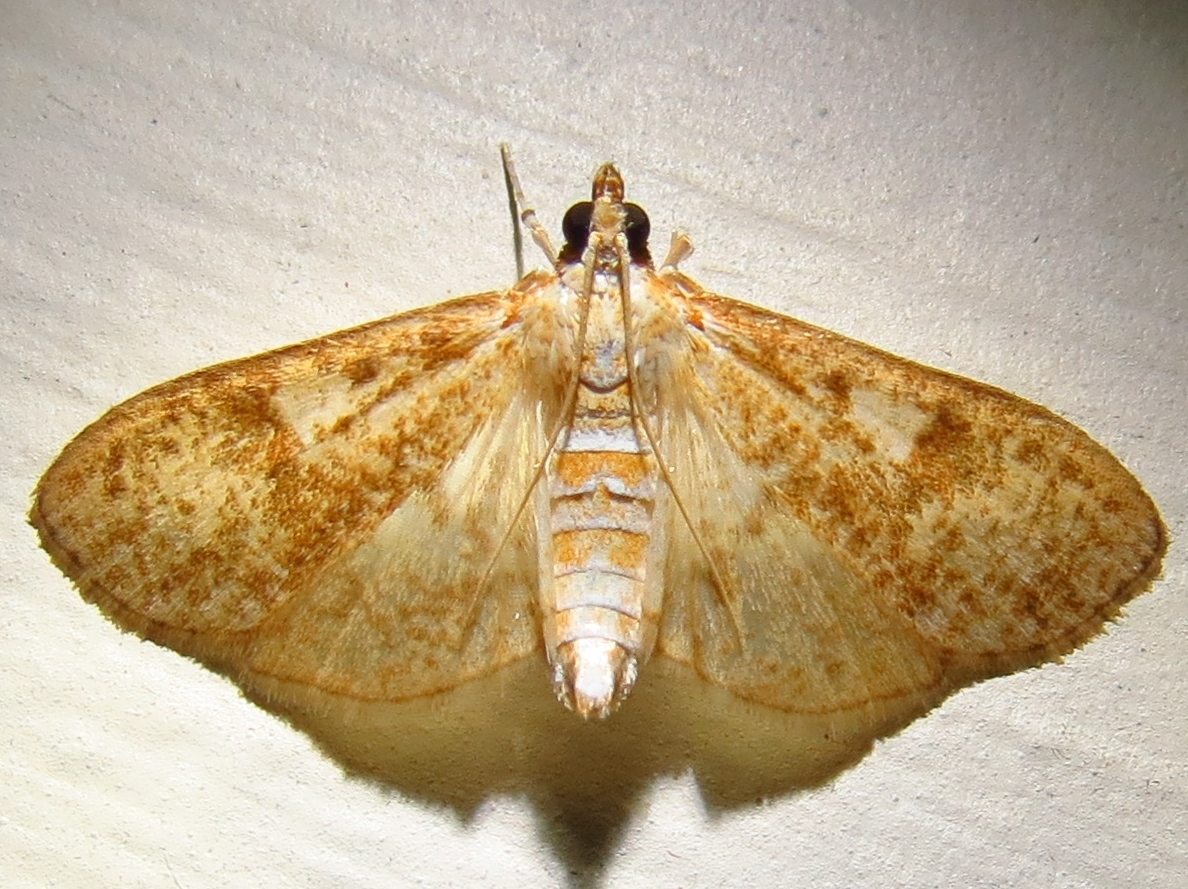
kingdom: Animalia
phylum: Arthropoda
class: Insecta
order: Lepidoptera
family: Crambidae
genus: Palpita
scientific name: Palpita freemanalis
